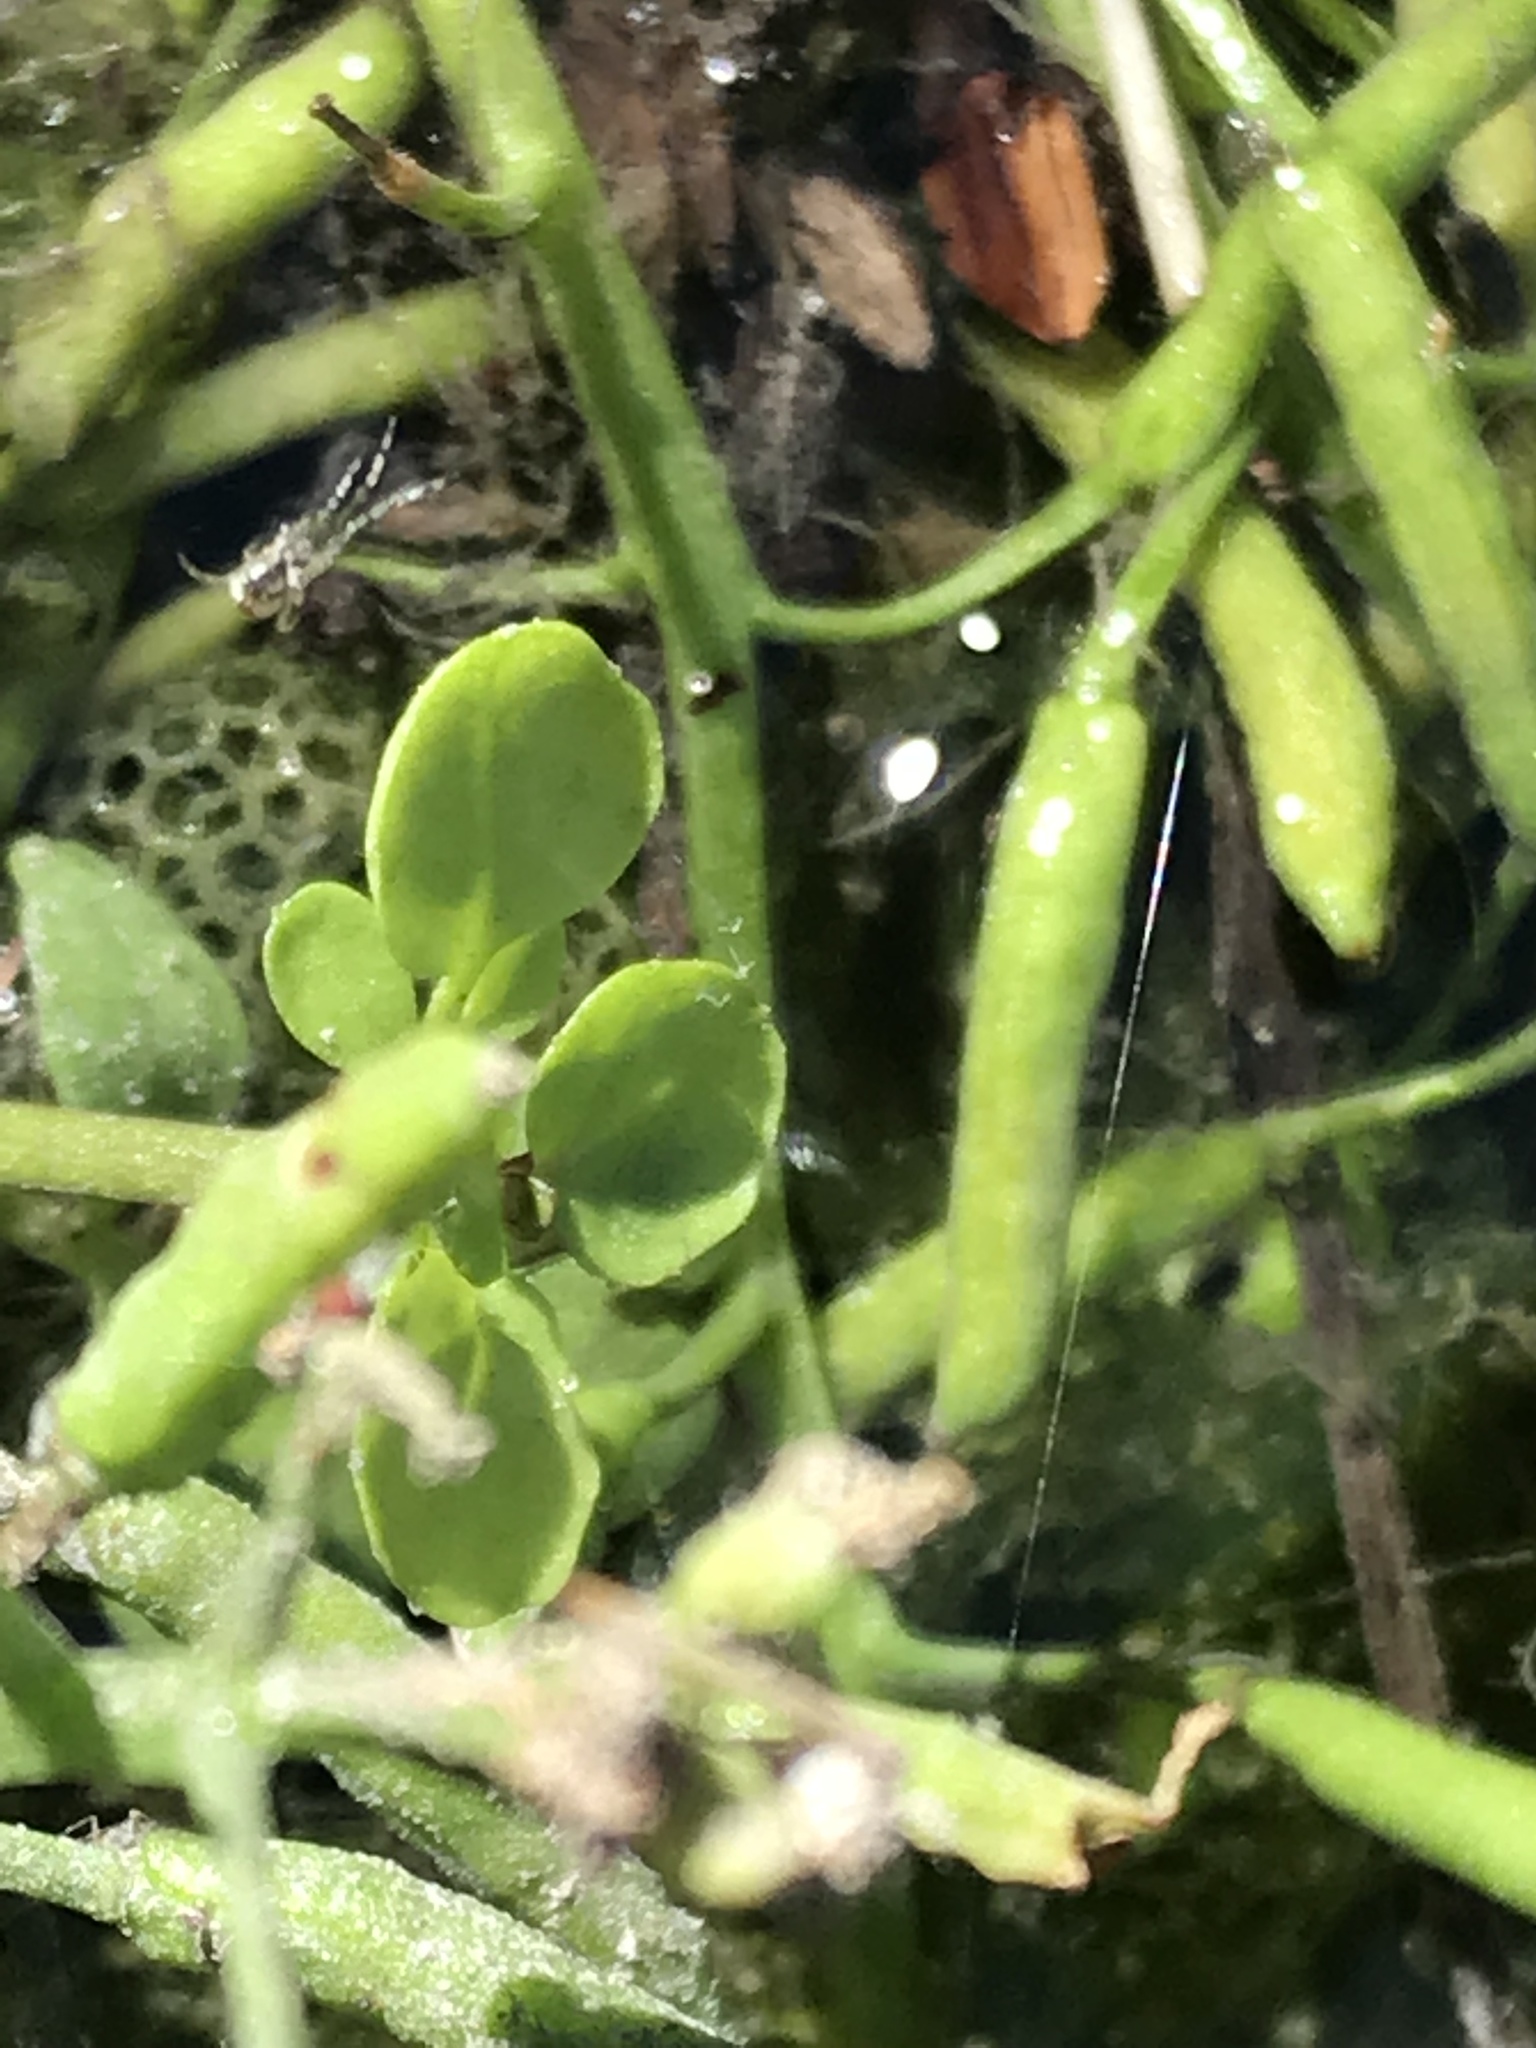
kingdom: Plantae
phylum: Tracheophyta
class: Magnoliopsida
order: Brassicales
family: Brassicaceae
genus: Nasturtium
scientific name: Nasturtium officinale
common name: Watercress
